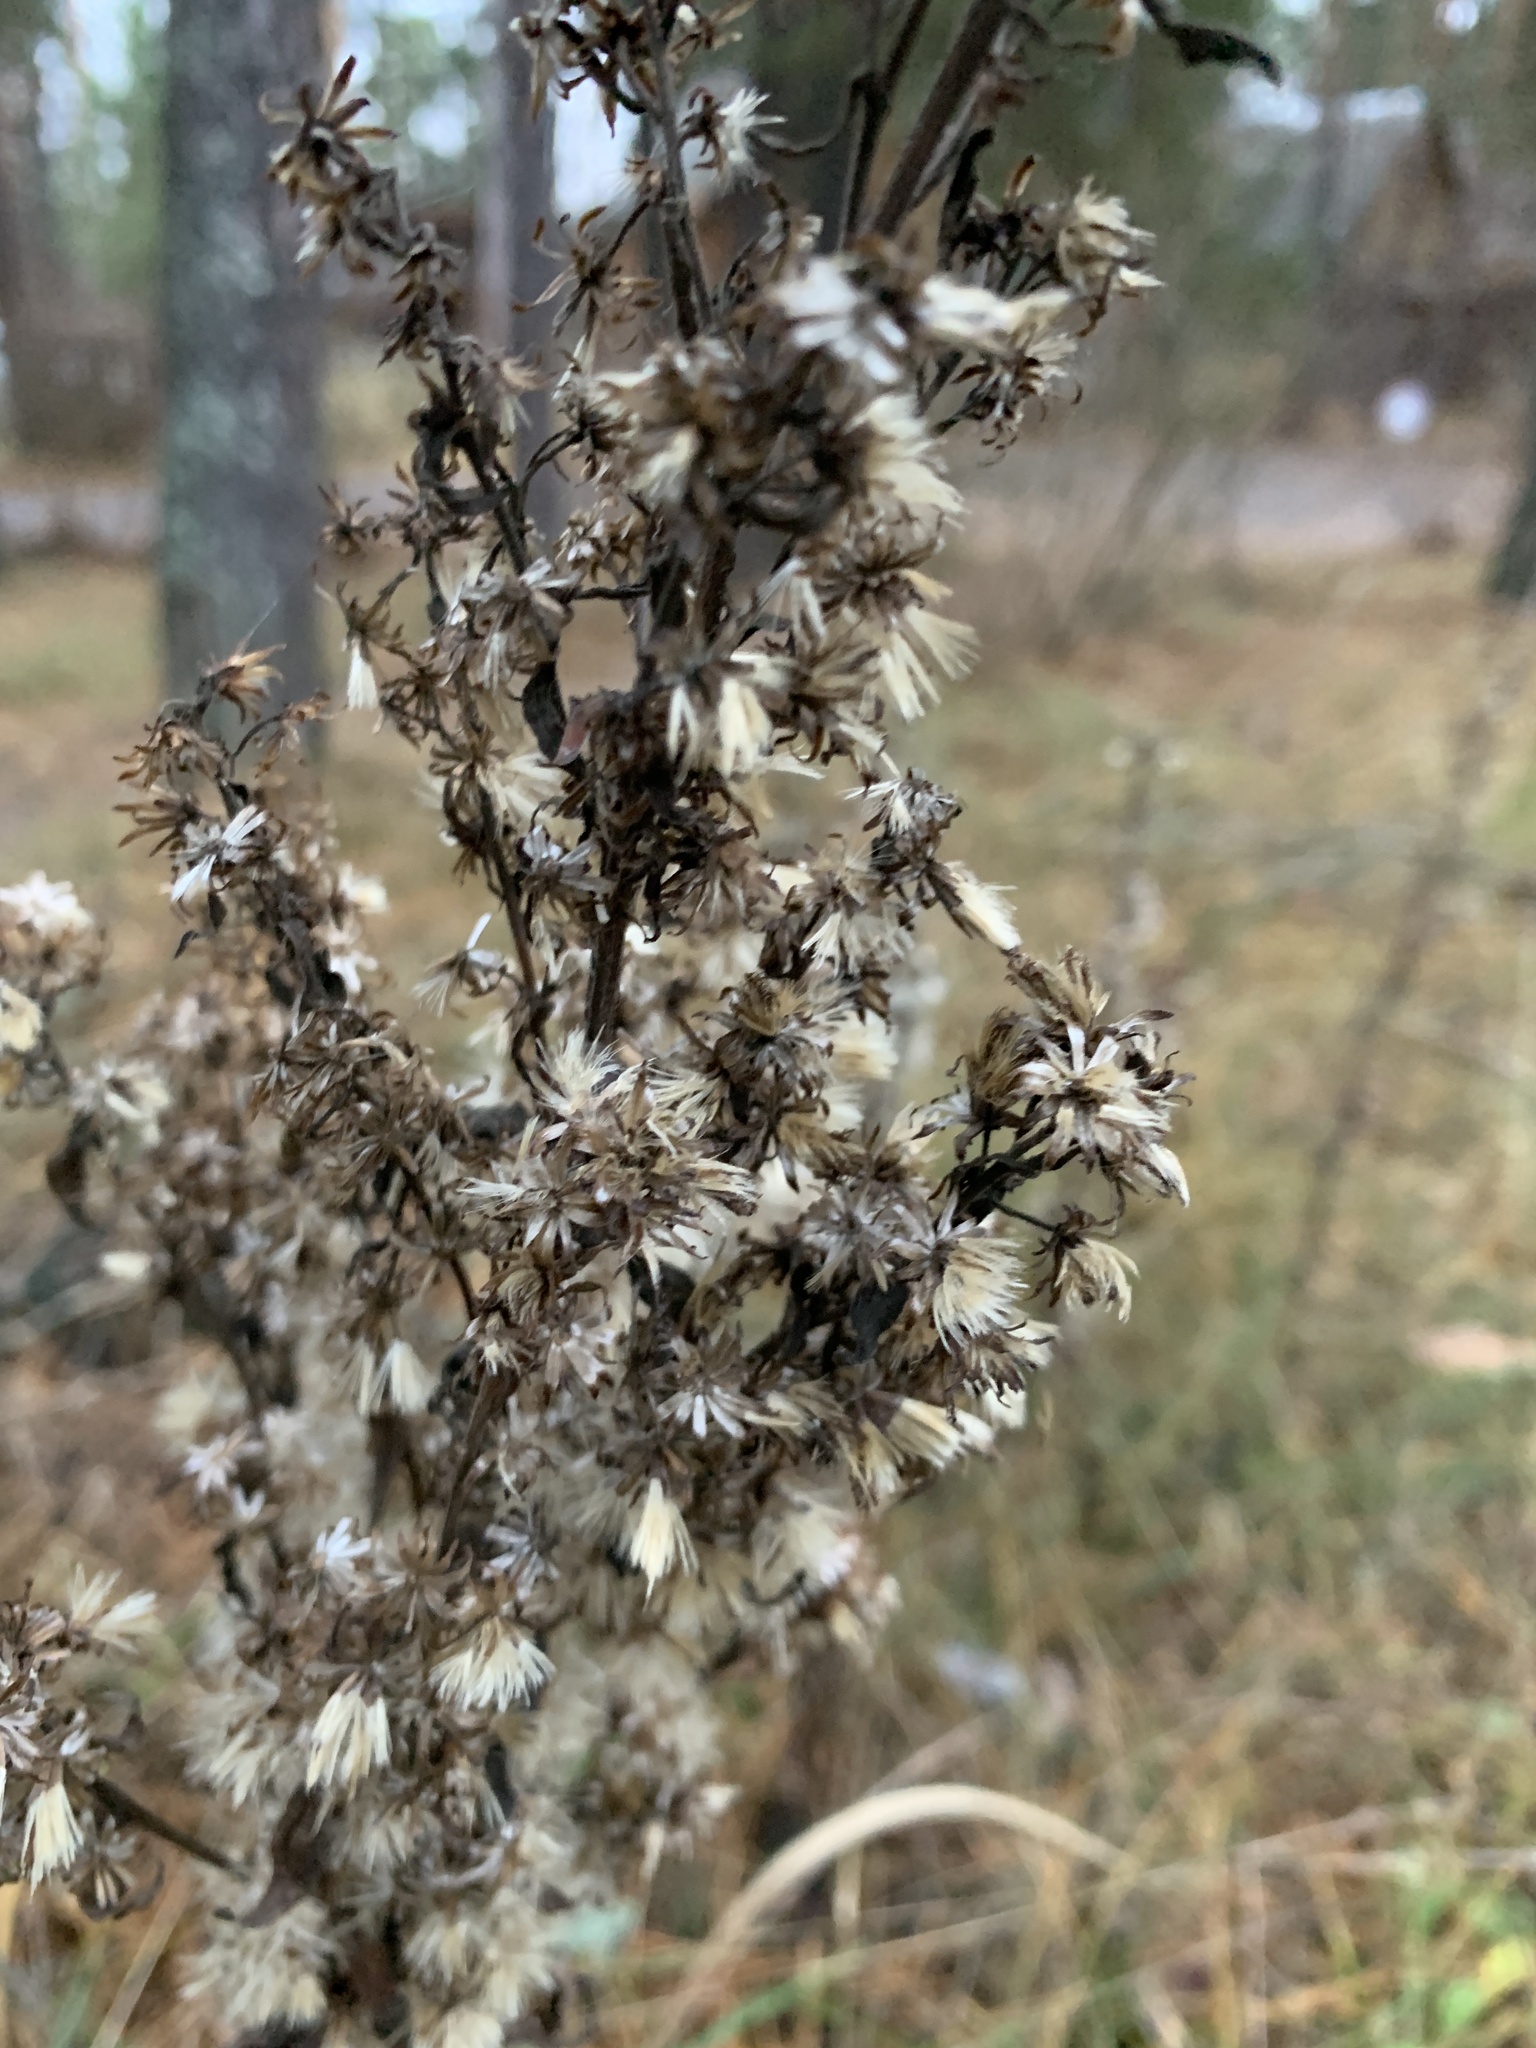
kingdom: Plantae
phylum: Tracheophyta
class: Magnoliopsida
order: Asterales
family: Asteraceae
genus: Solidago
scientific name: Solidago virgaurea
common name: Goldenrod
